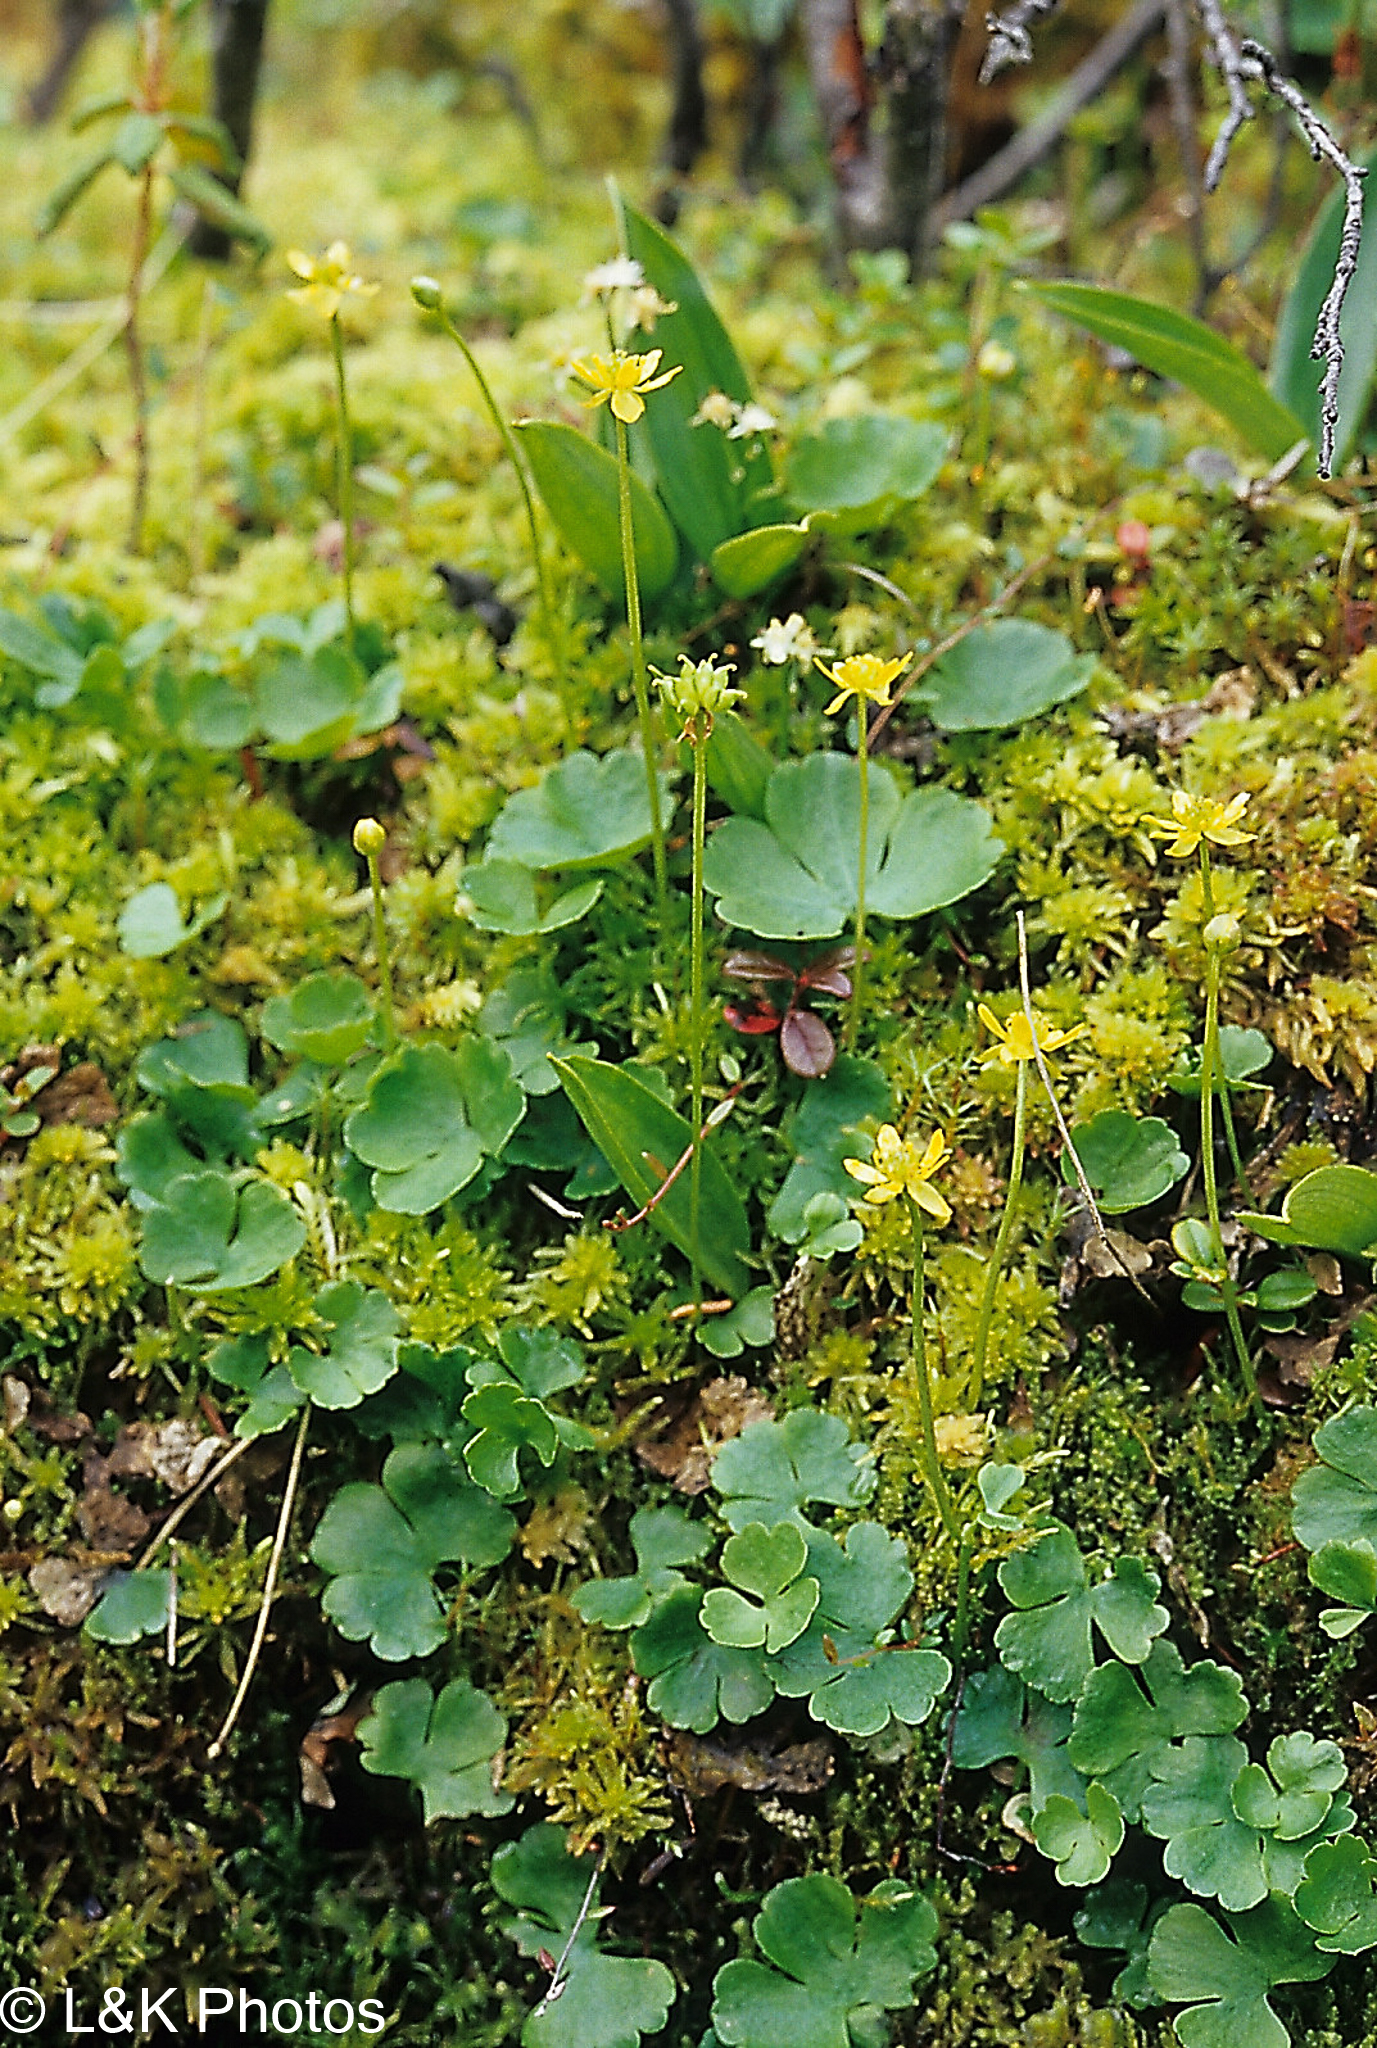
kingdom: Plantae
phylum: Tracheophyta
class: Magnoliopsida
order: Ranunculales
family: Ranunculaceae
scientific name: Ranunculaceae
